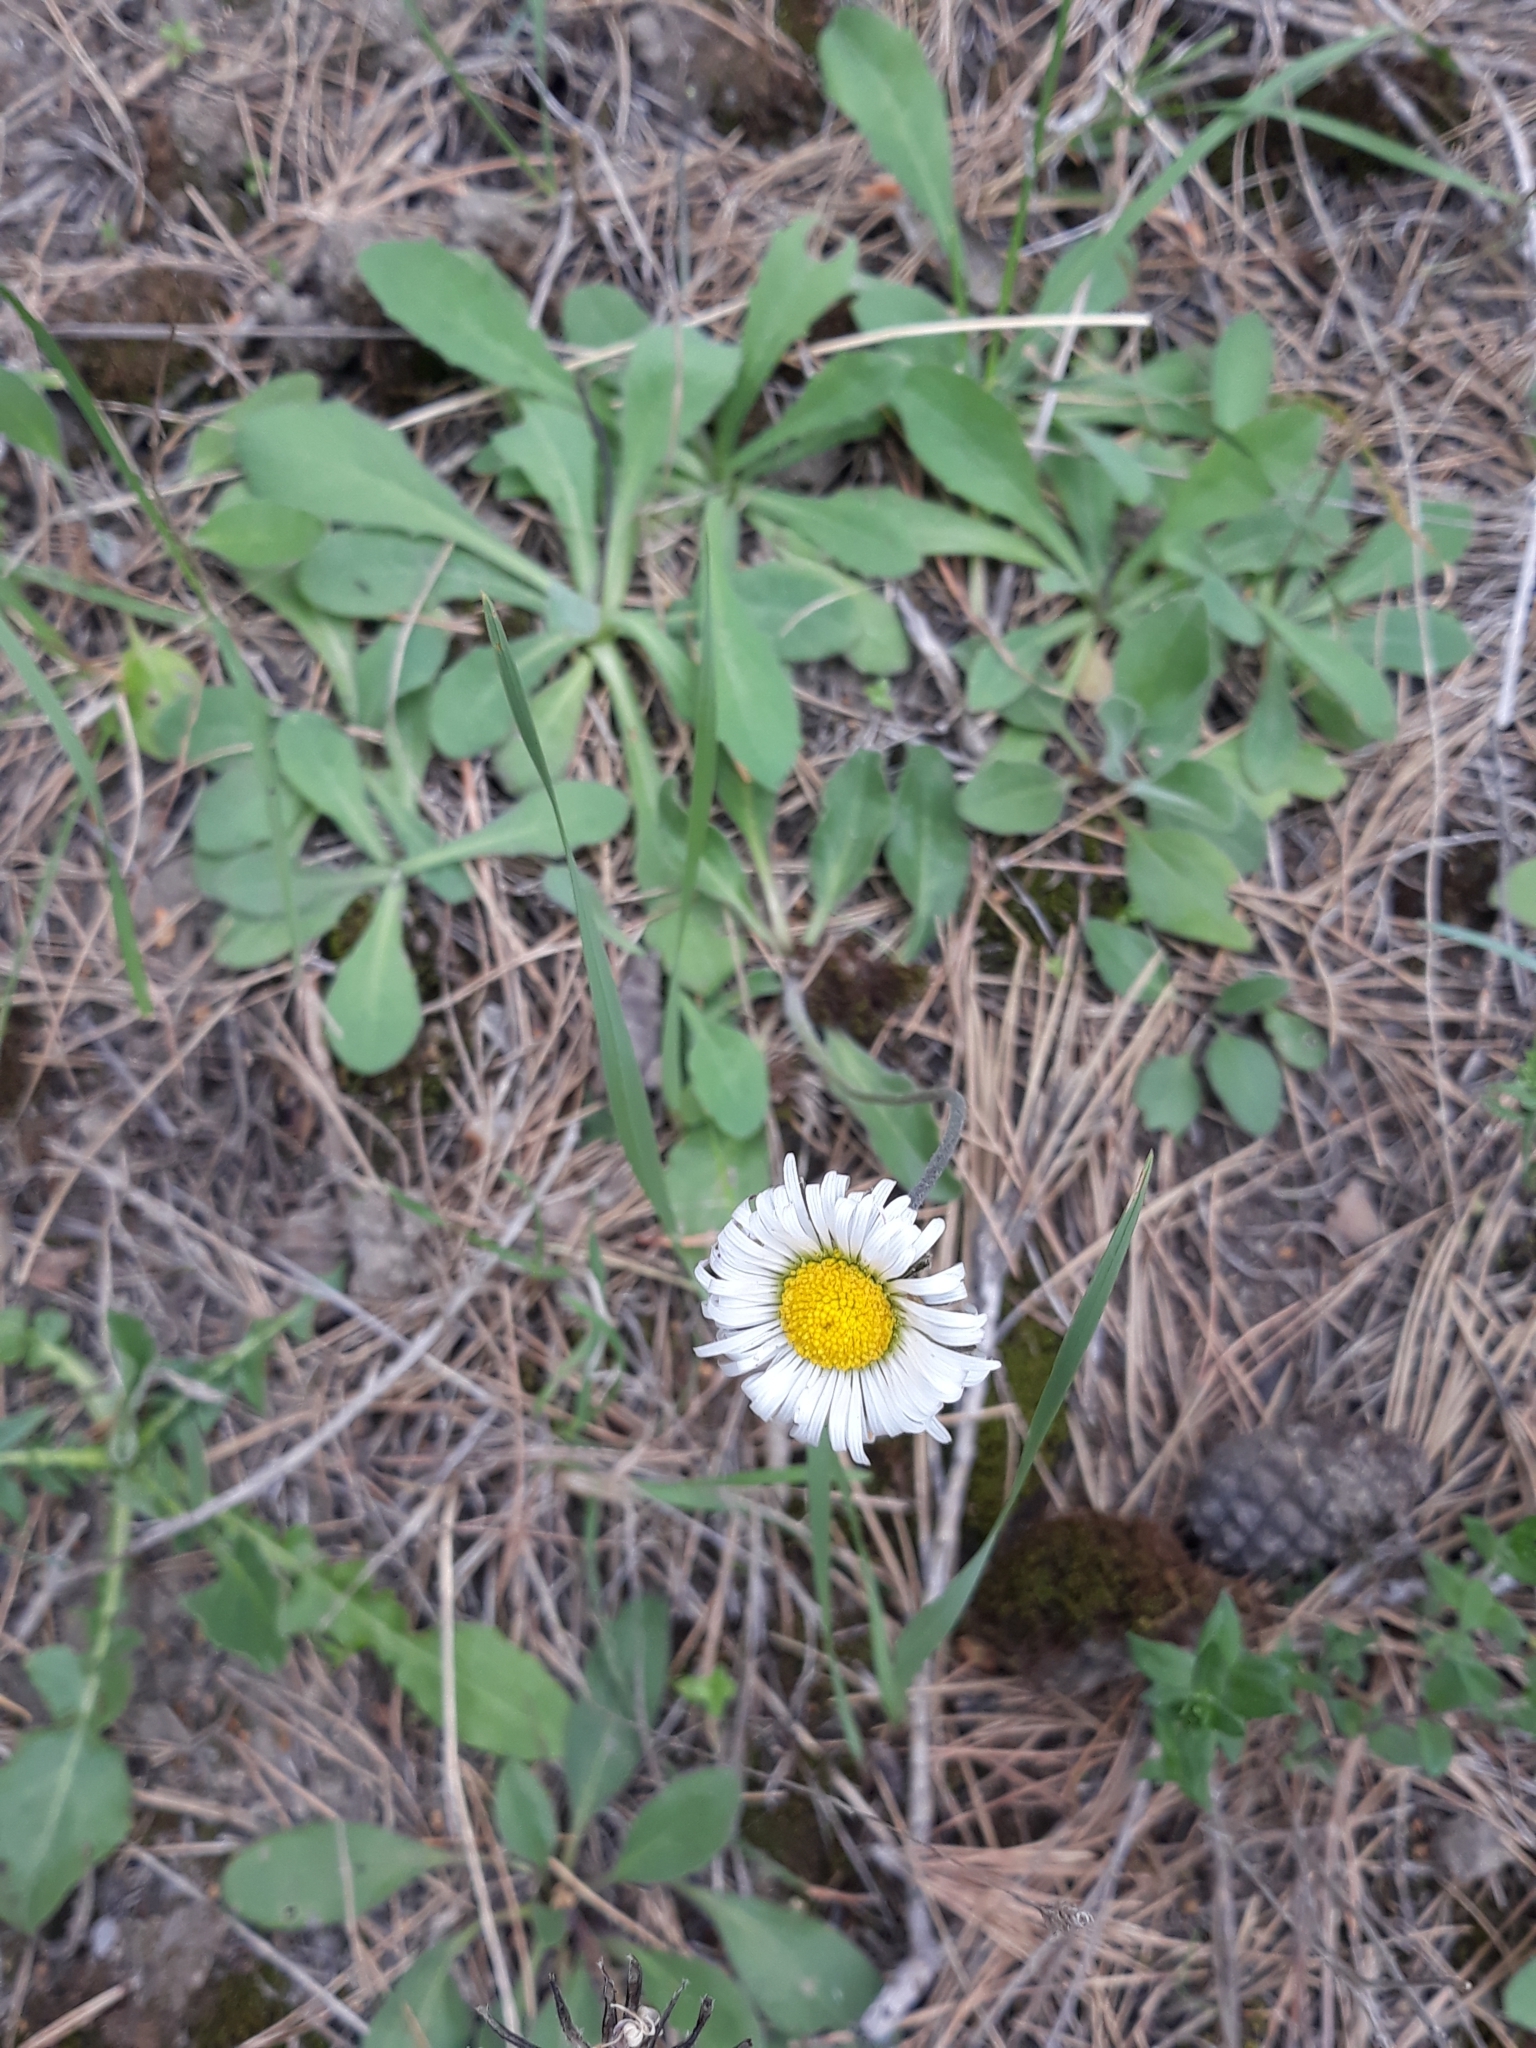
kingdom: Plantae
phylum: Tracheophyta
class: Magnoliopsida
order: Asterales
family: Asteraceae
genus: Bellis
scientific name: Bellis perennis
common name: Lawndaisy
